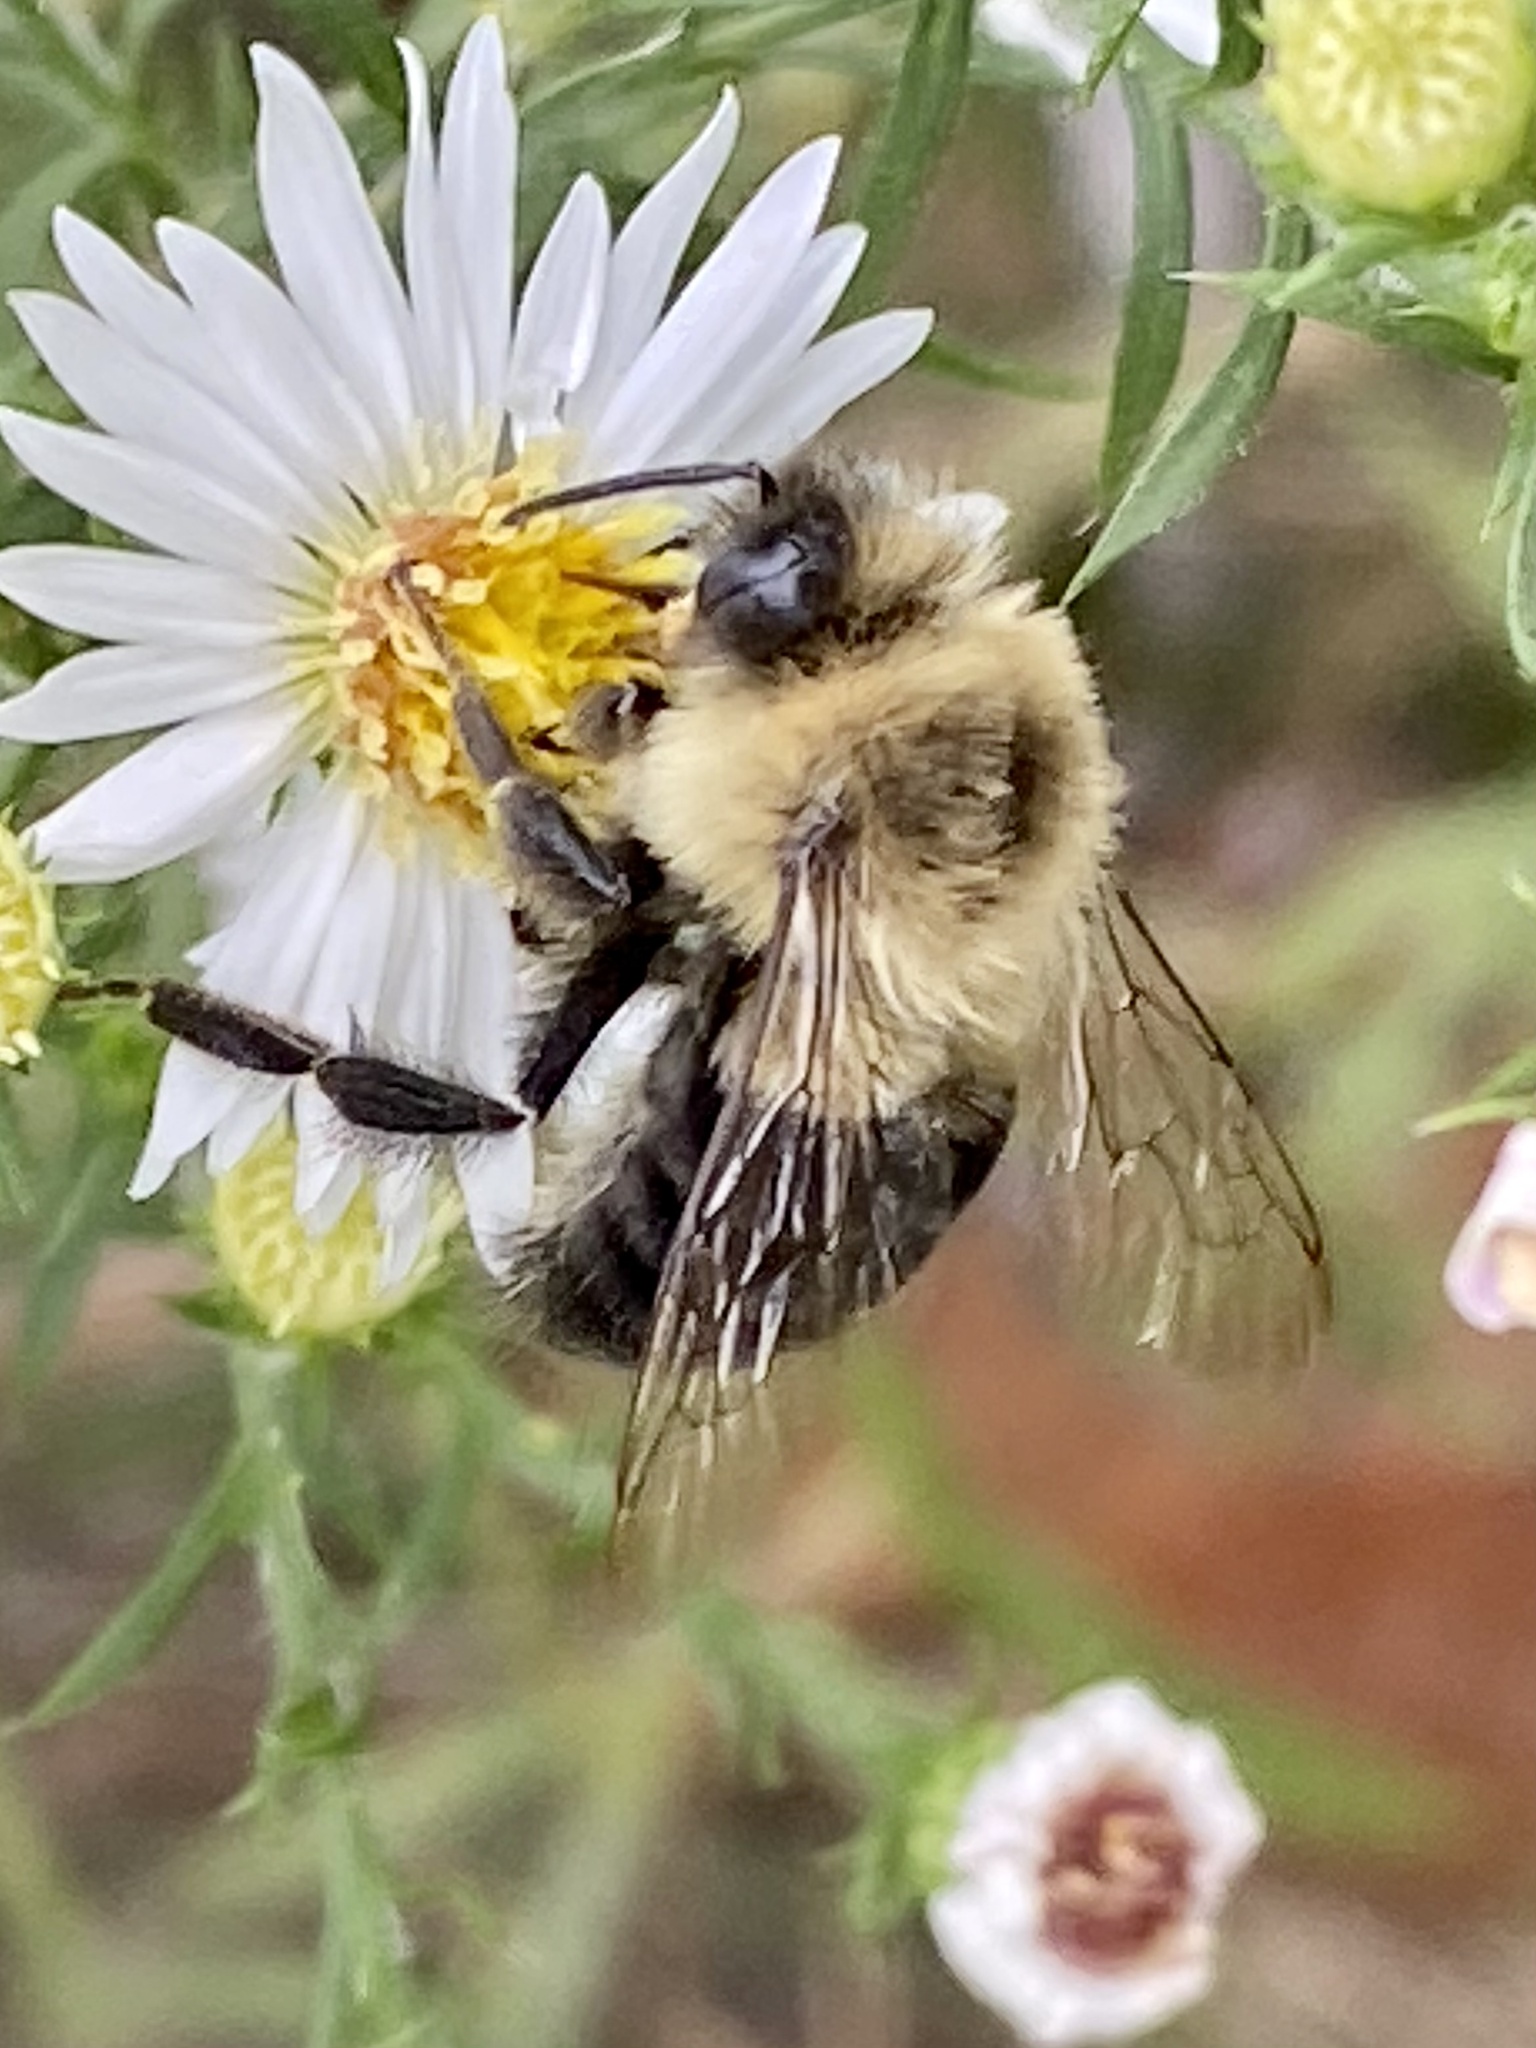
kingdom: Animalia
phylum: Arthropoda
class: Insecta
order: Hymenoptera
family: Apidae
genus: Bombus
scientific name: Bombus impatiens
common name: Common eastern bumble bee
